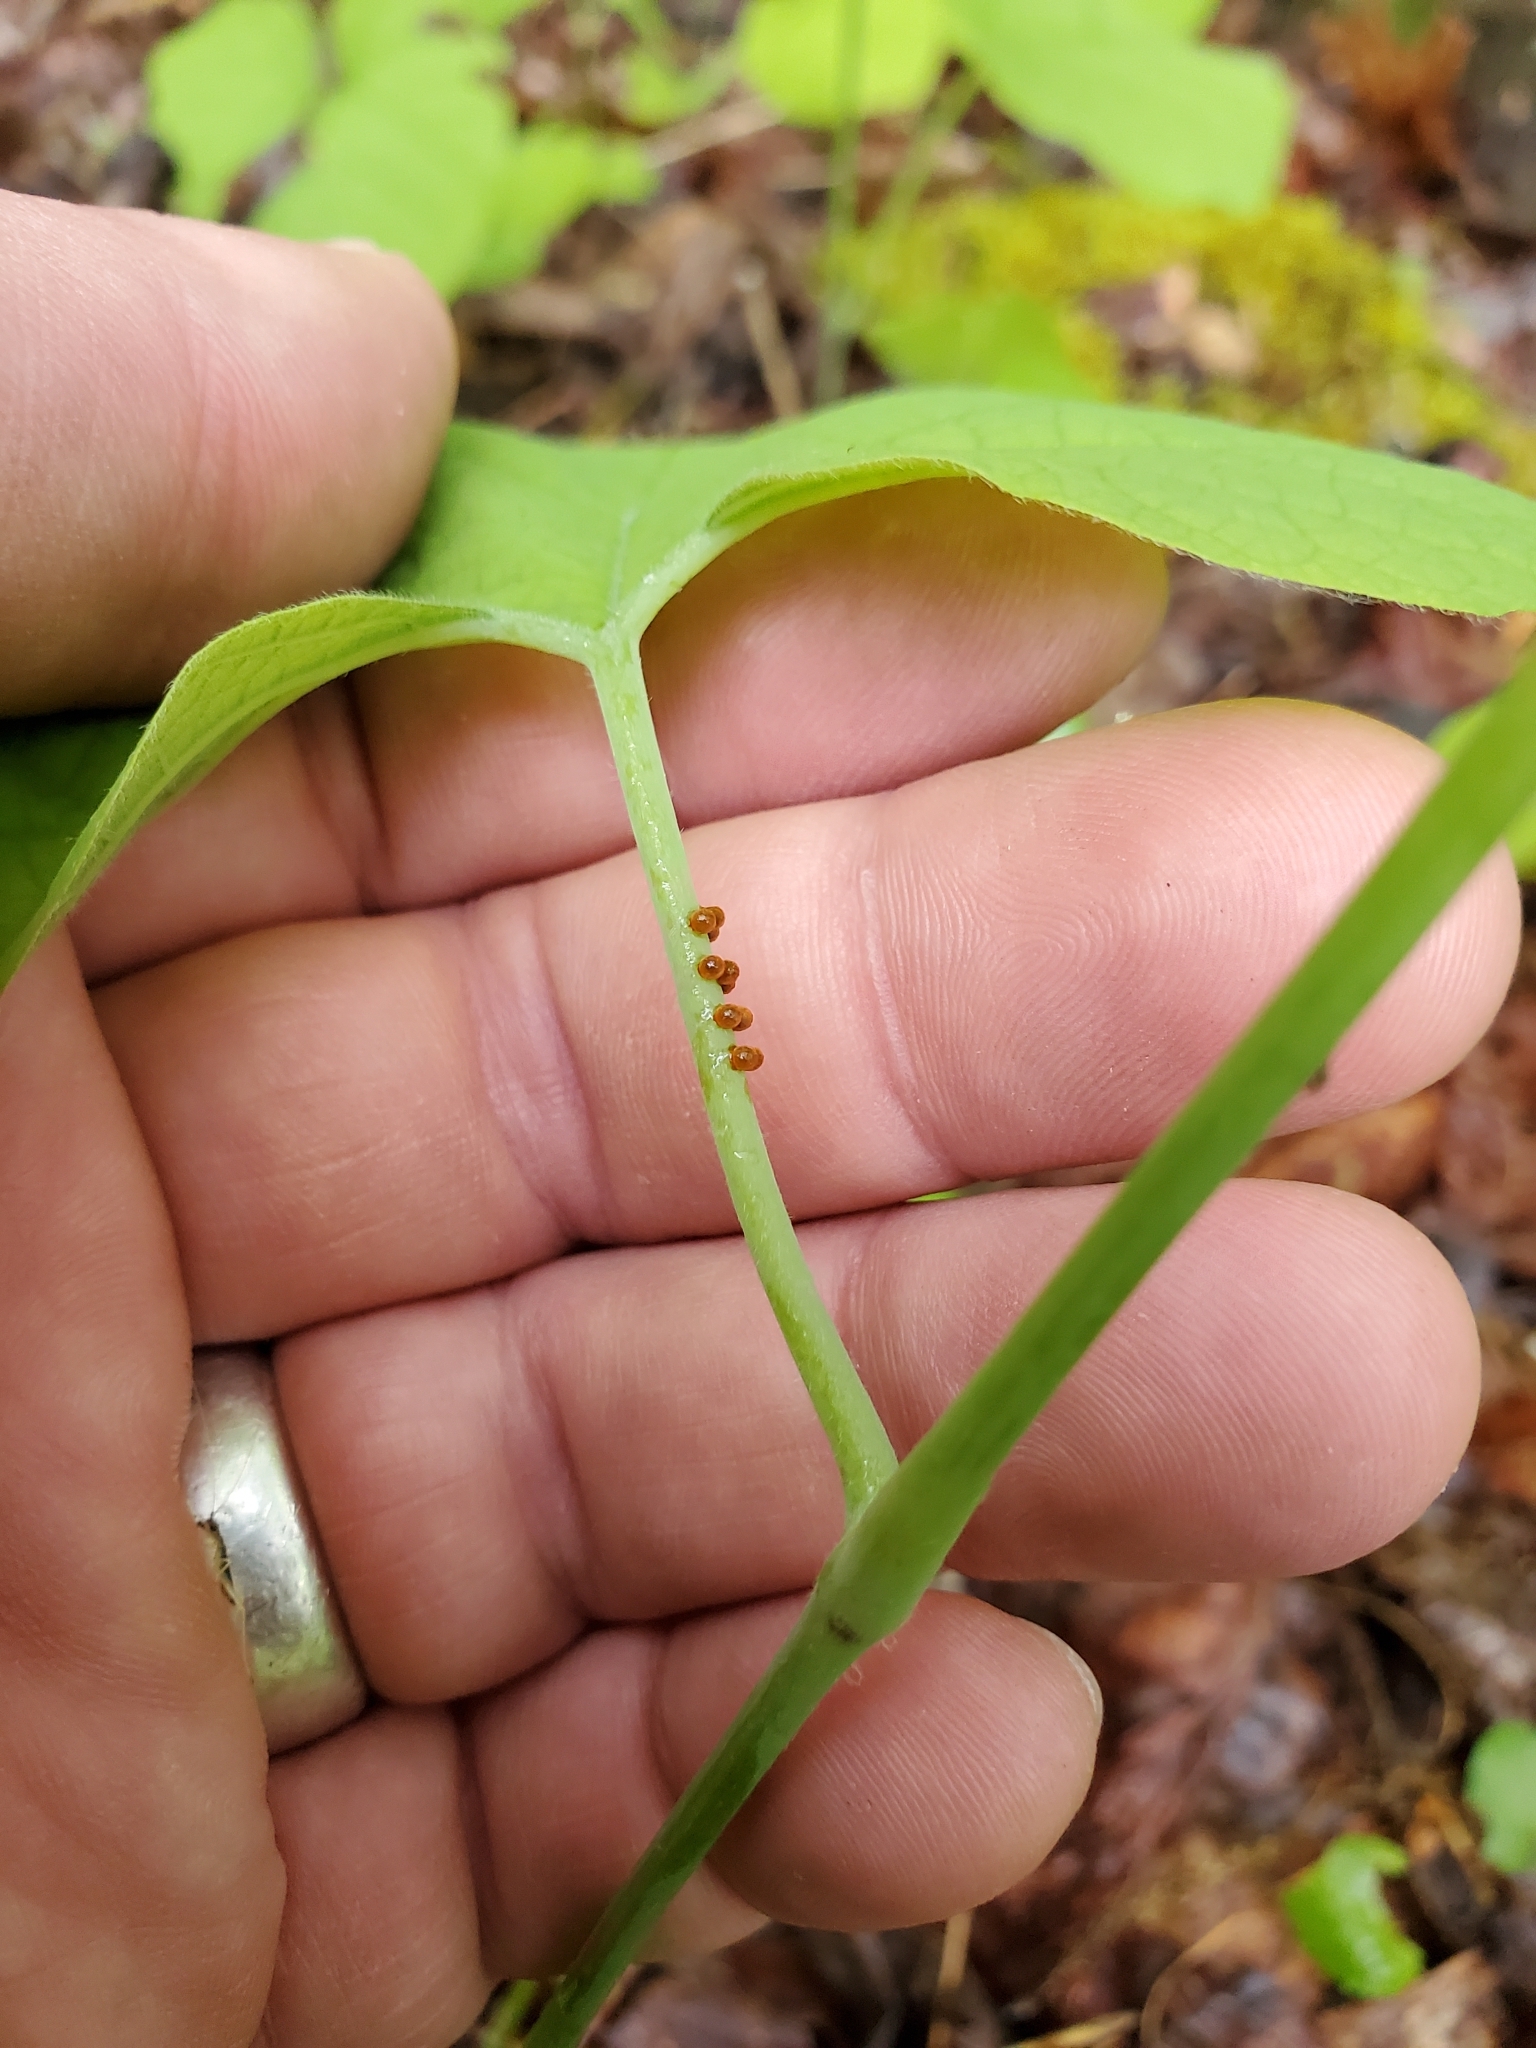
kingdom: Animalia
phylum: Arthropoda
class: Insecta
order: Lepidoptera
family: Papilionidae
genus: Battus
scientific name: Battus philenor
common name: Pipevine swallowtail
